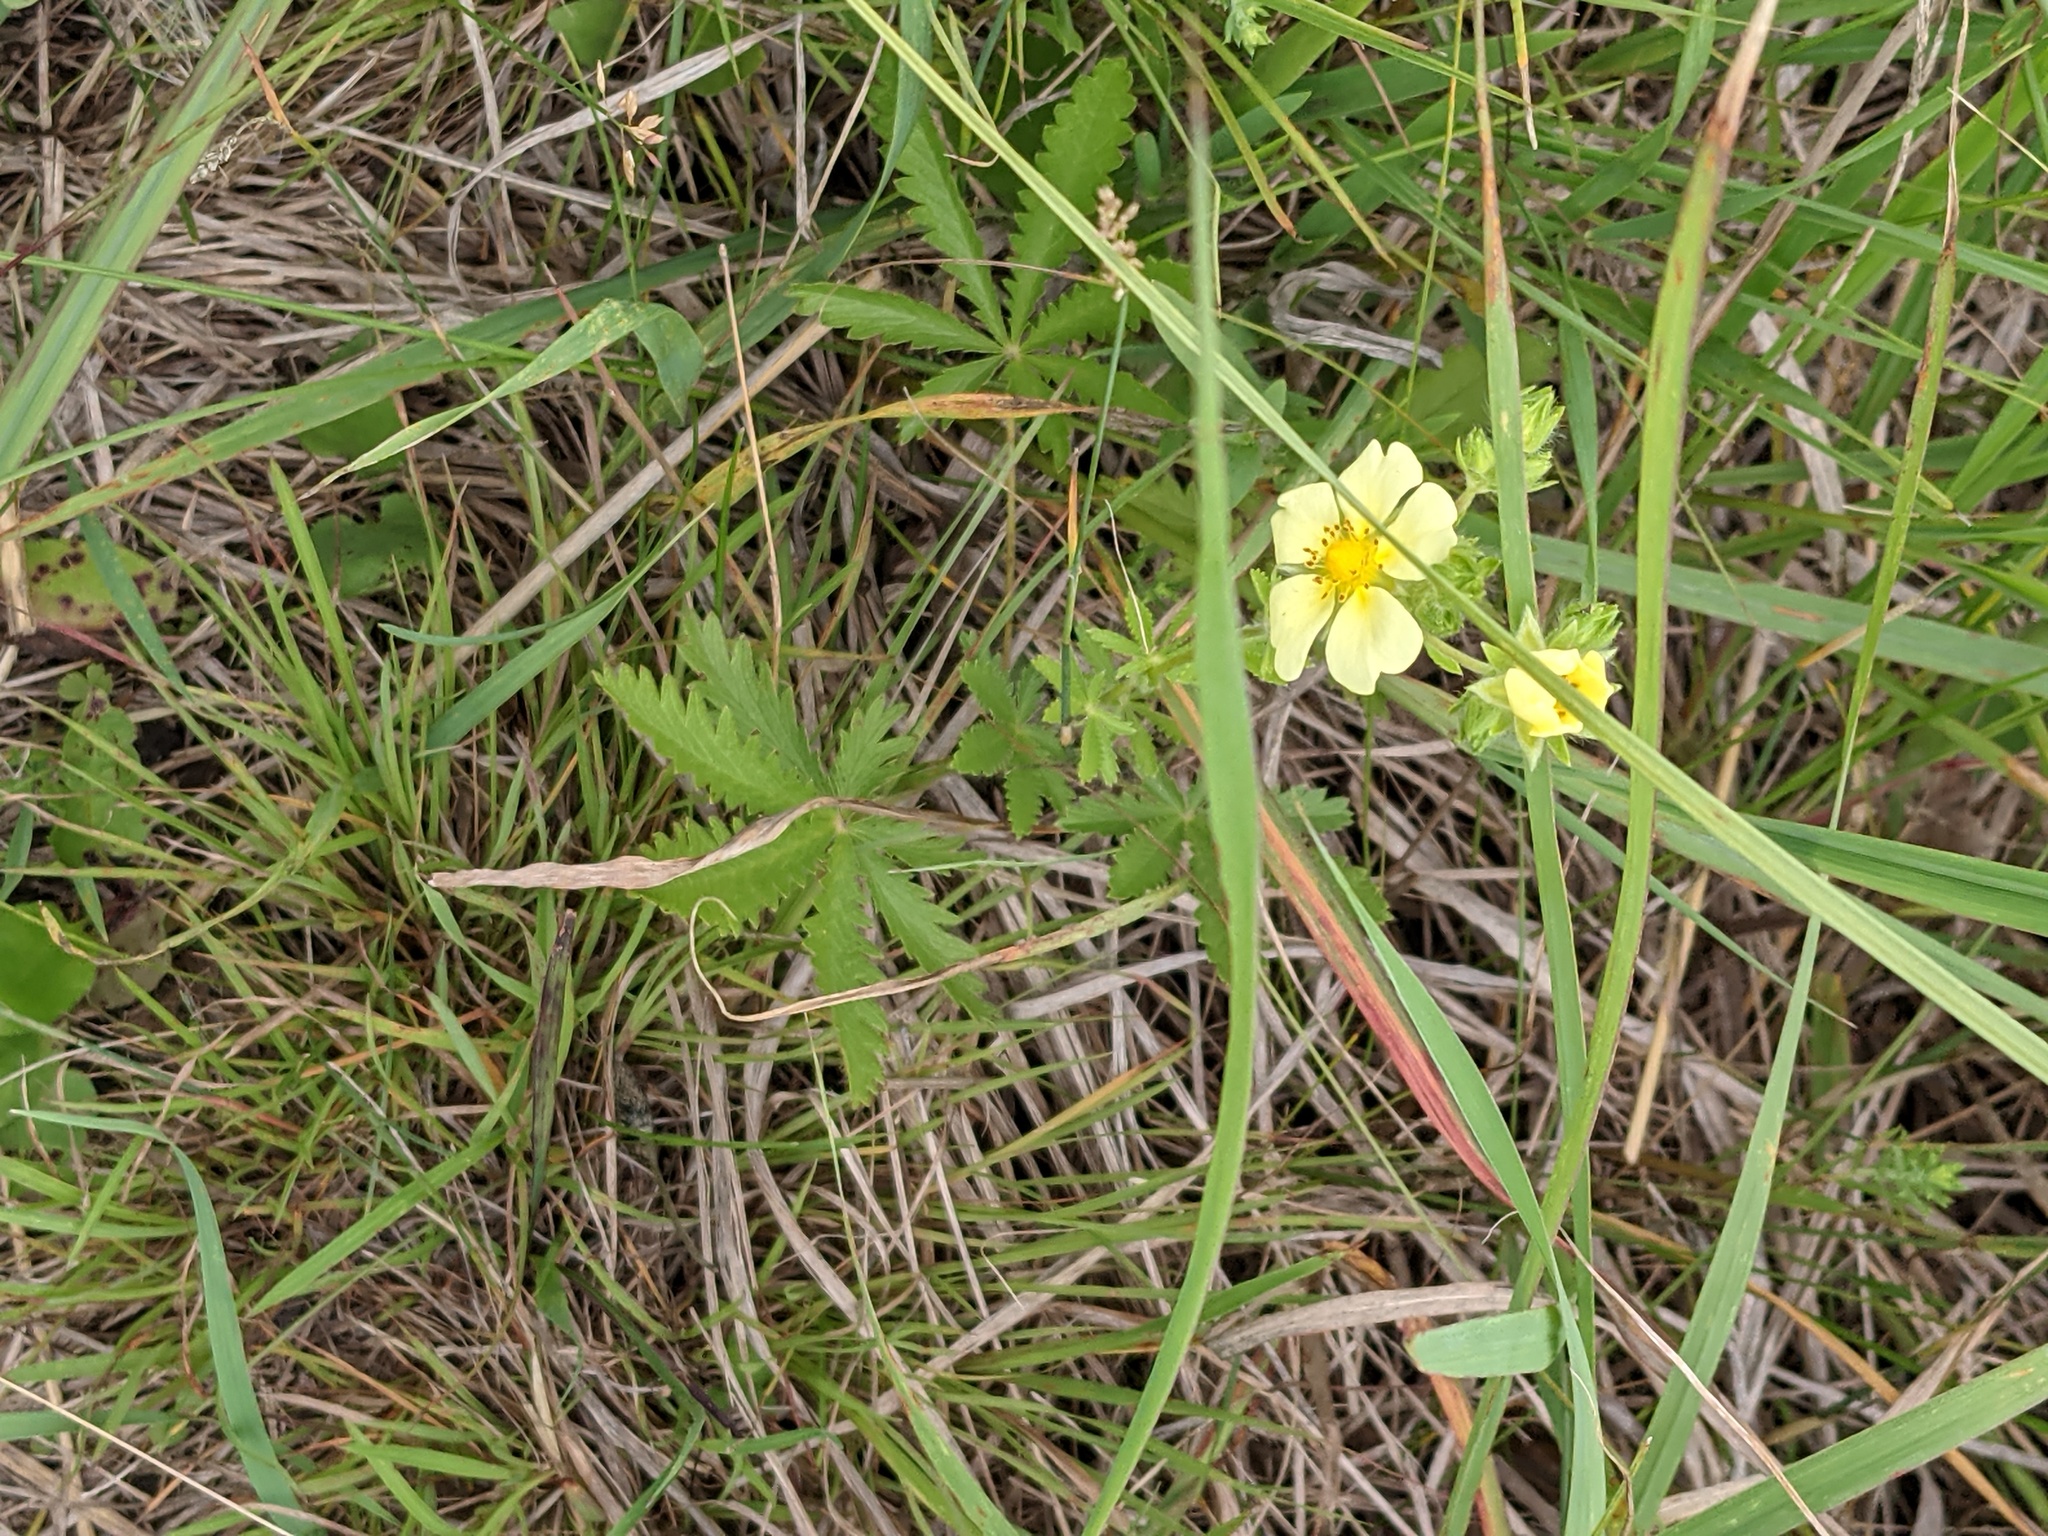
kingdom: Plantae
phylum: Tracheophyta
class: Magnoliopsida
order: Rosales
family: Rosaceae
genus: Potentilla
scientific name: Potentilla recta
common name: Sulphur cinquefoil
